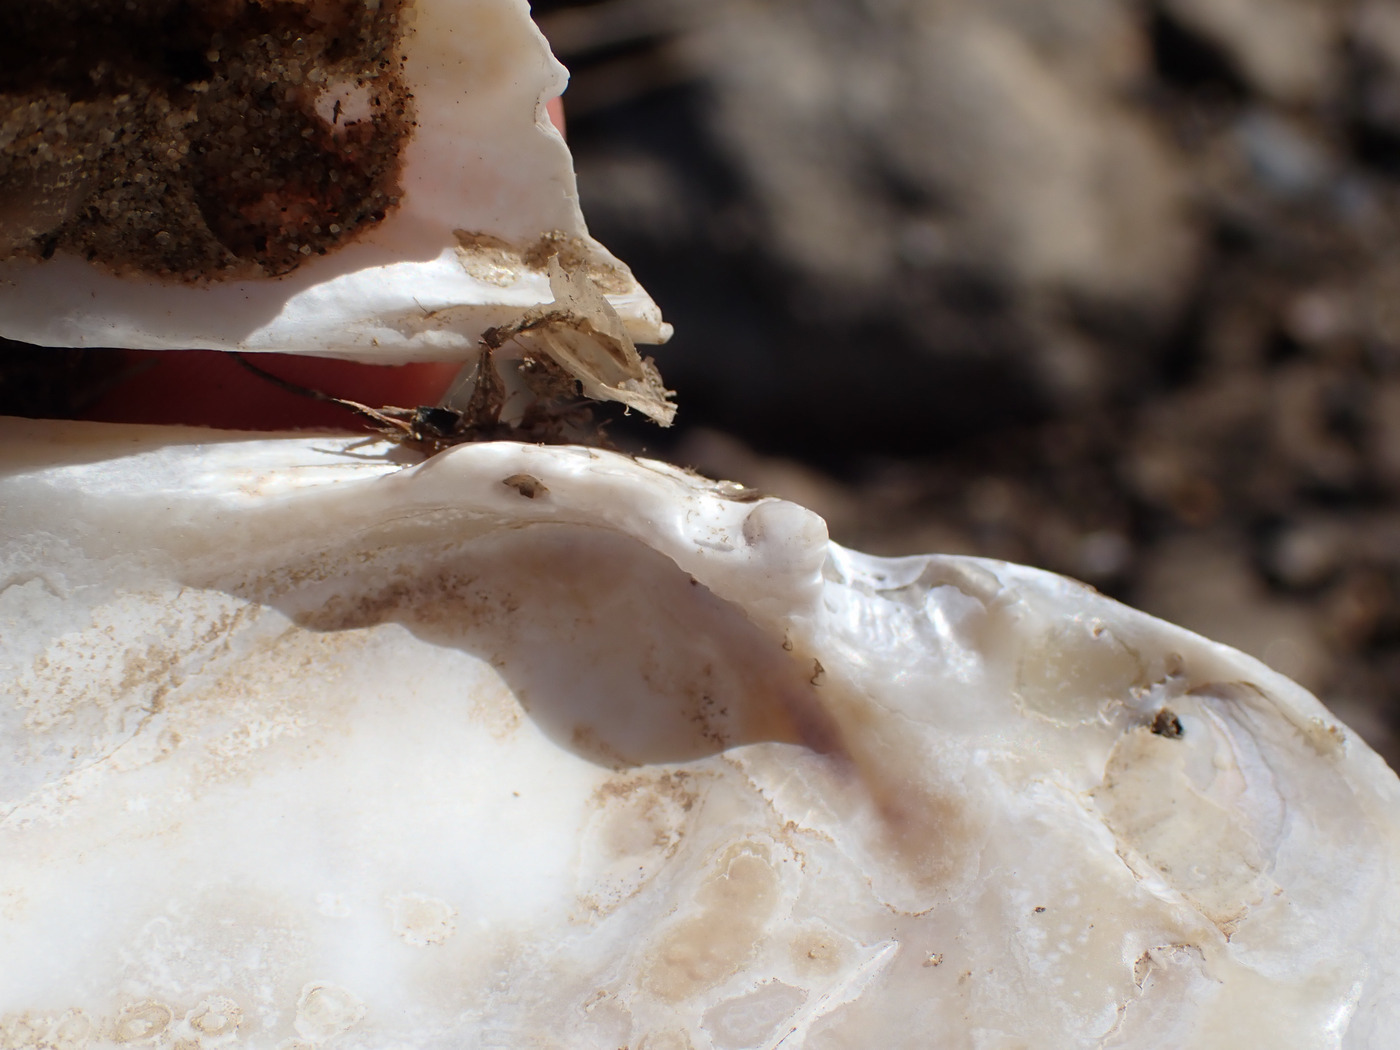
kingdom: Animalia
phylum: Mollusca
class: Bivalvia
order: Unionida
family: Unionidae
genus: Lasmigona
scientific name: Lasmigona costata
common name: Flutedshell
